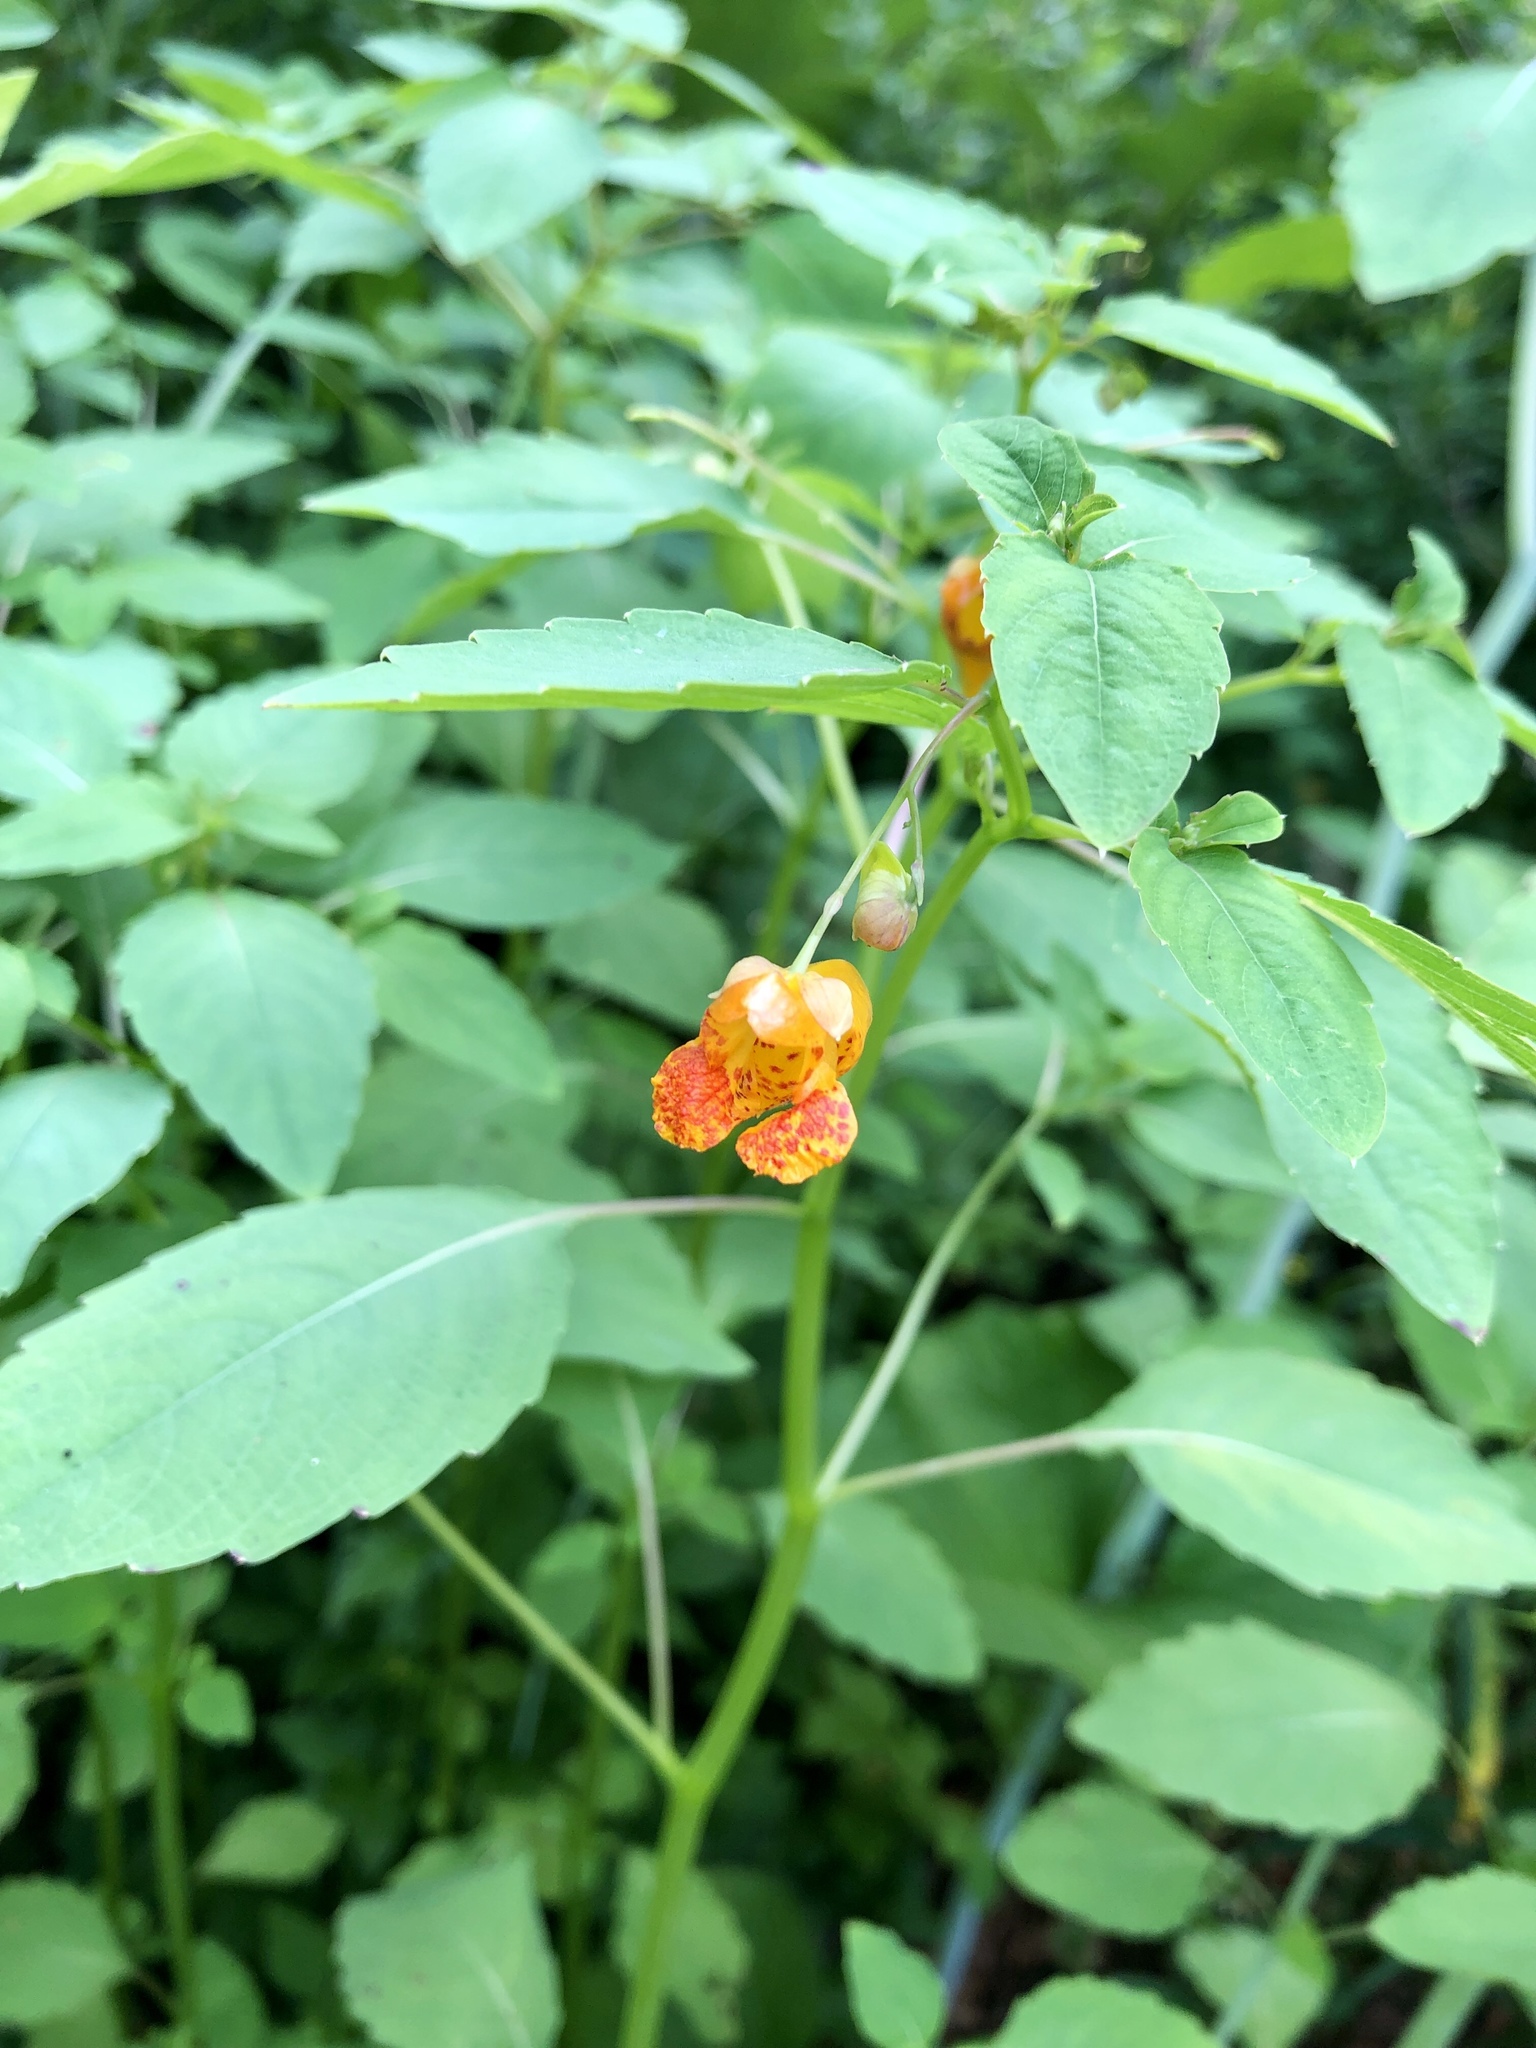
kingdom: Plantae
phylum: Tracheophyta
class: Magnoliopsida
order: Ericales
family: Balsaminaceae
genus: Impatiens
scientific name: Impatiens capensis
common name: Orange balsam
